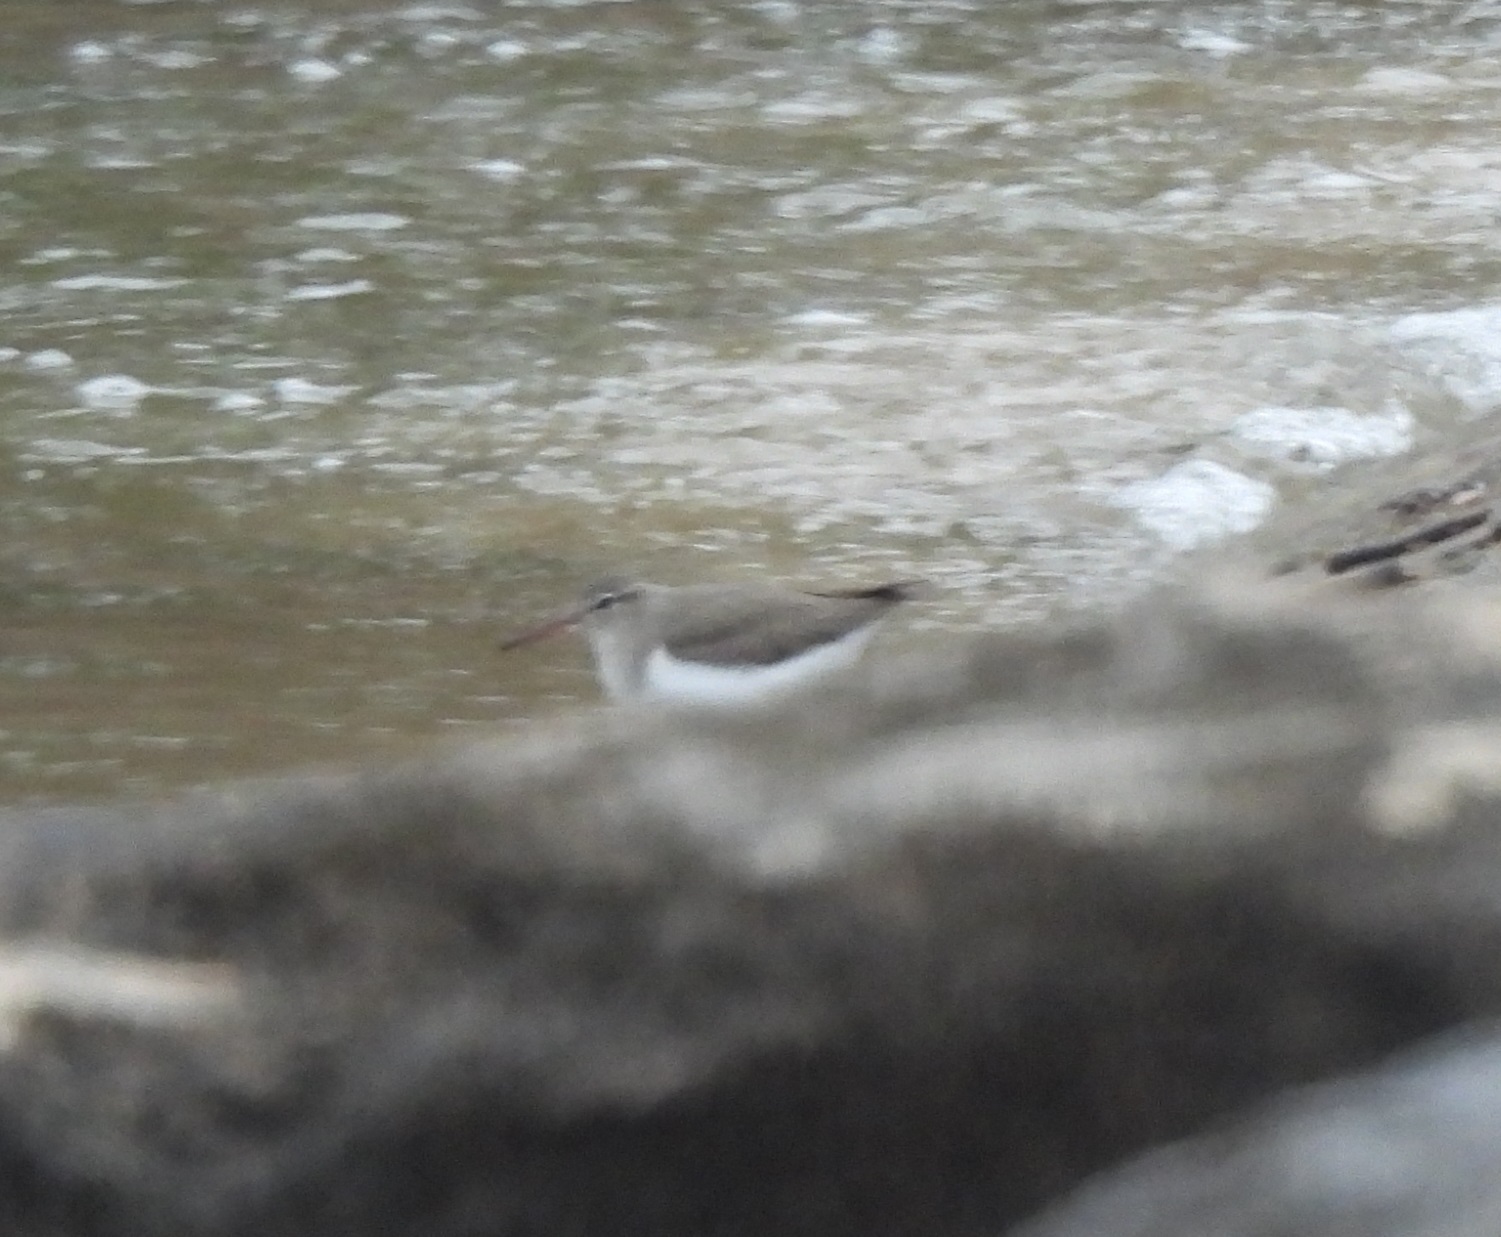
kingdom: Animalia
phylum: Chordata
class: Aves
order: Charadriiformes
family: Scolopacidae
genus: Actitis
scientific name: Actitis macularius
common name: Spotted sandpiper
